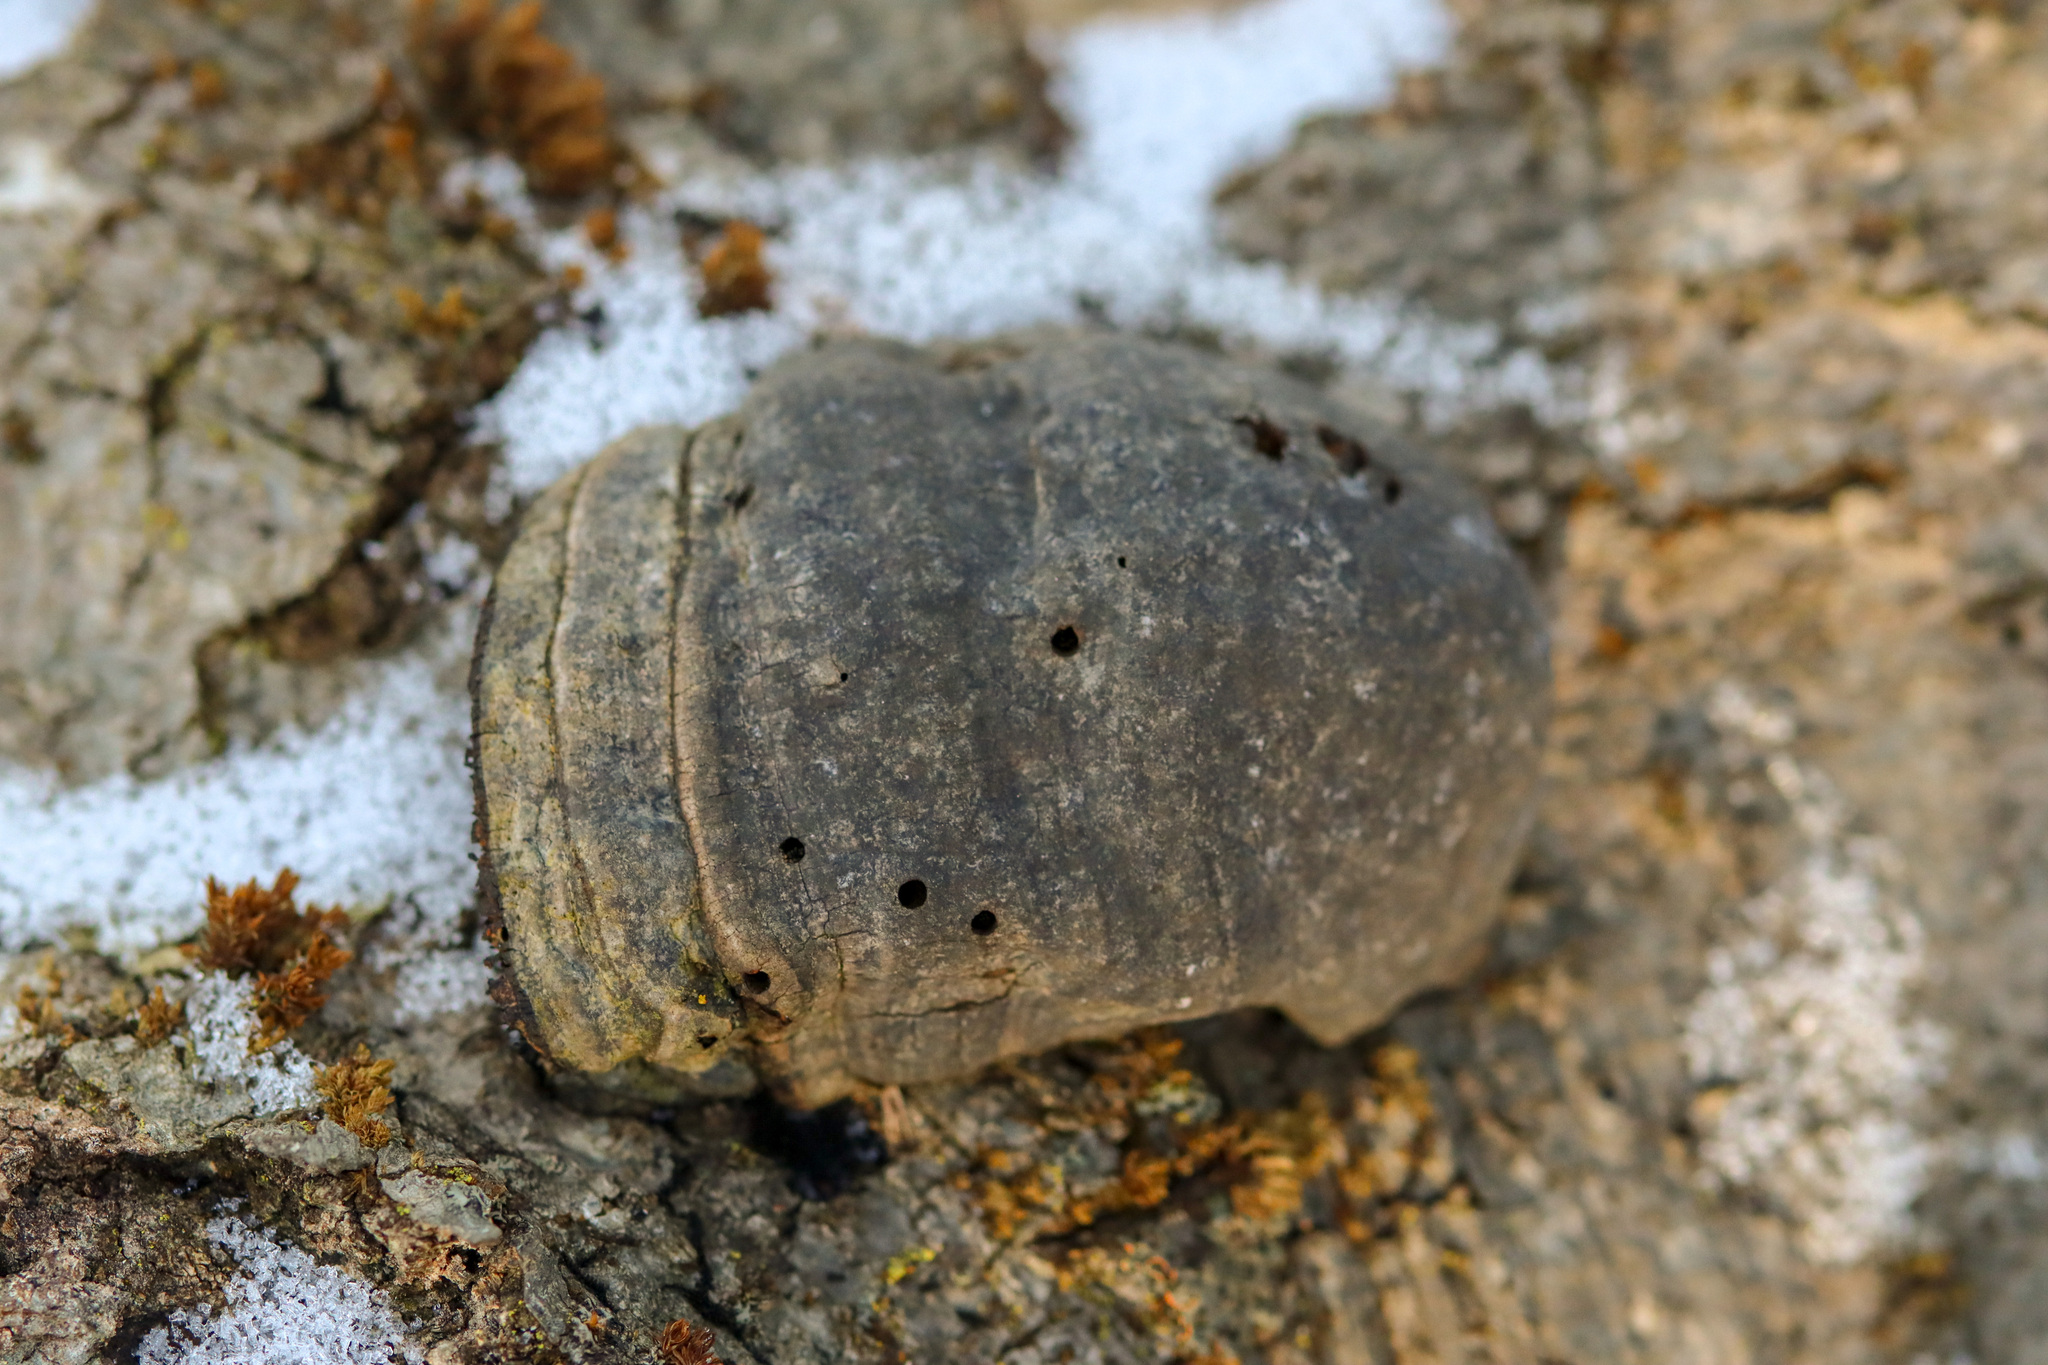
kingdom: Fungi
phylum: Basidiomycota
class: Agaricomycetes
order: Polyporales
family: Polyporaceae
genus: Fomes
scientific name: Fomes fomentarius
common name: Hoof fungus
